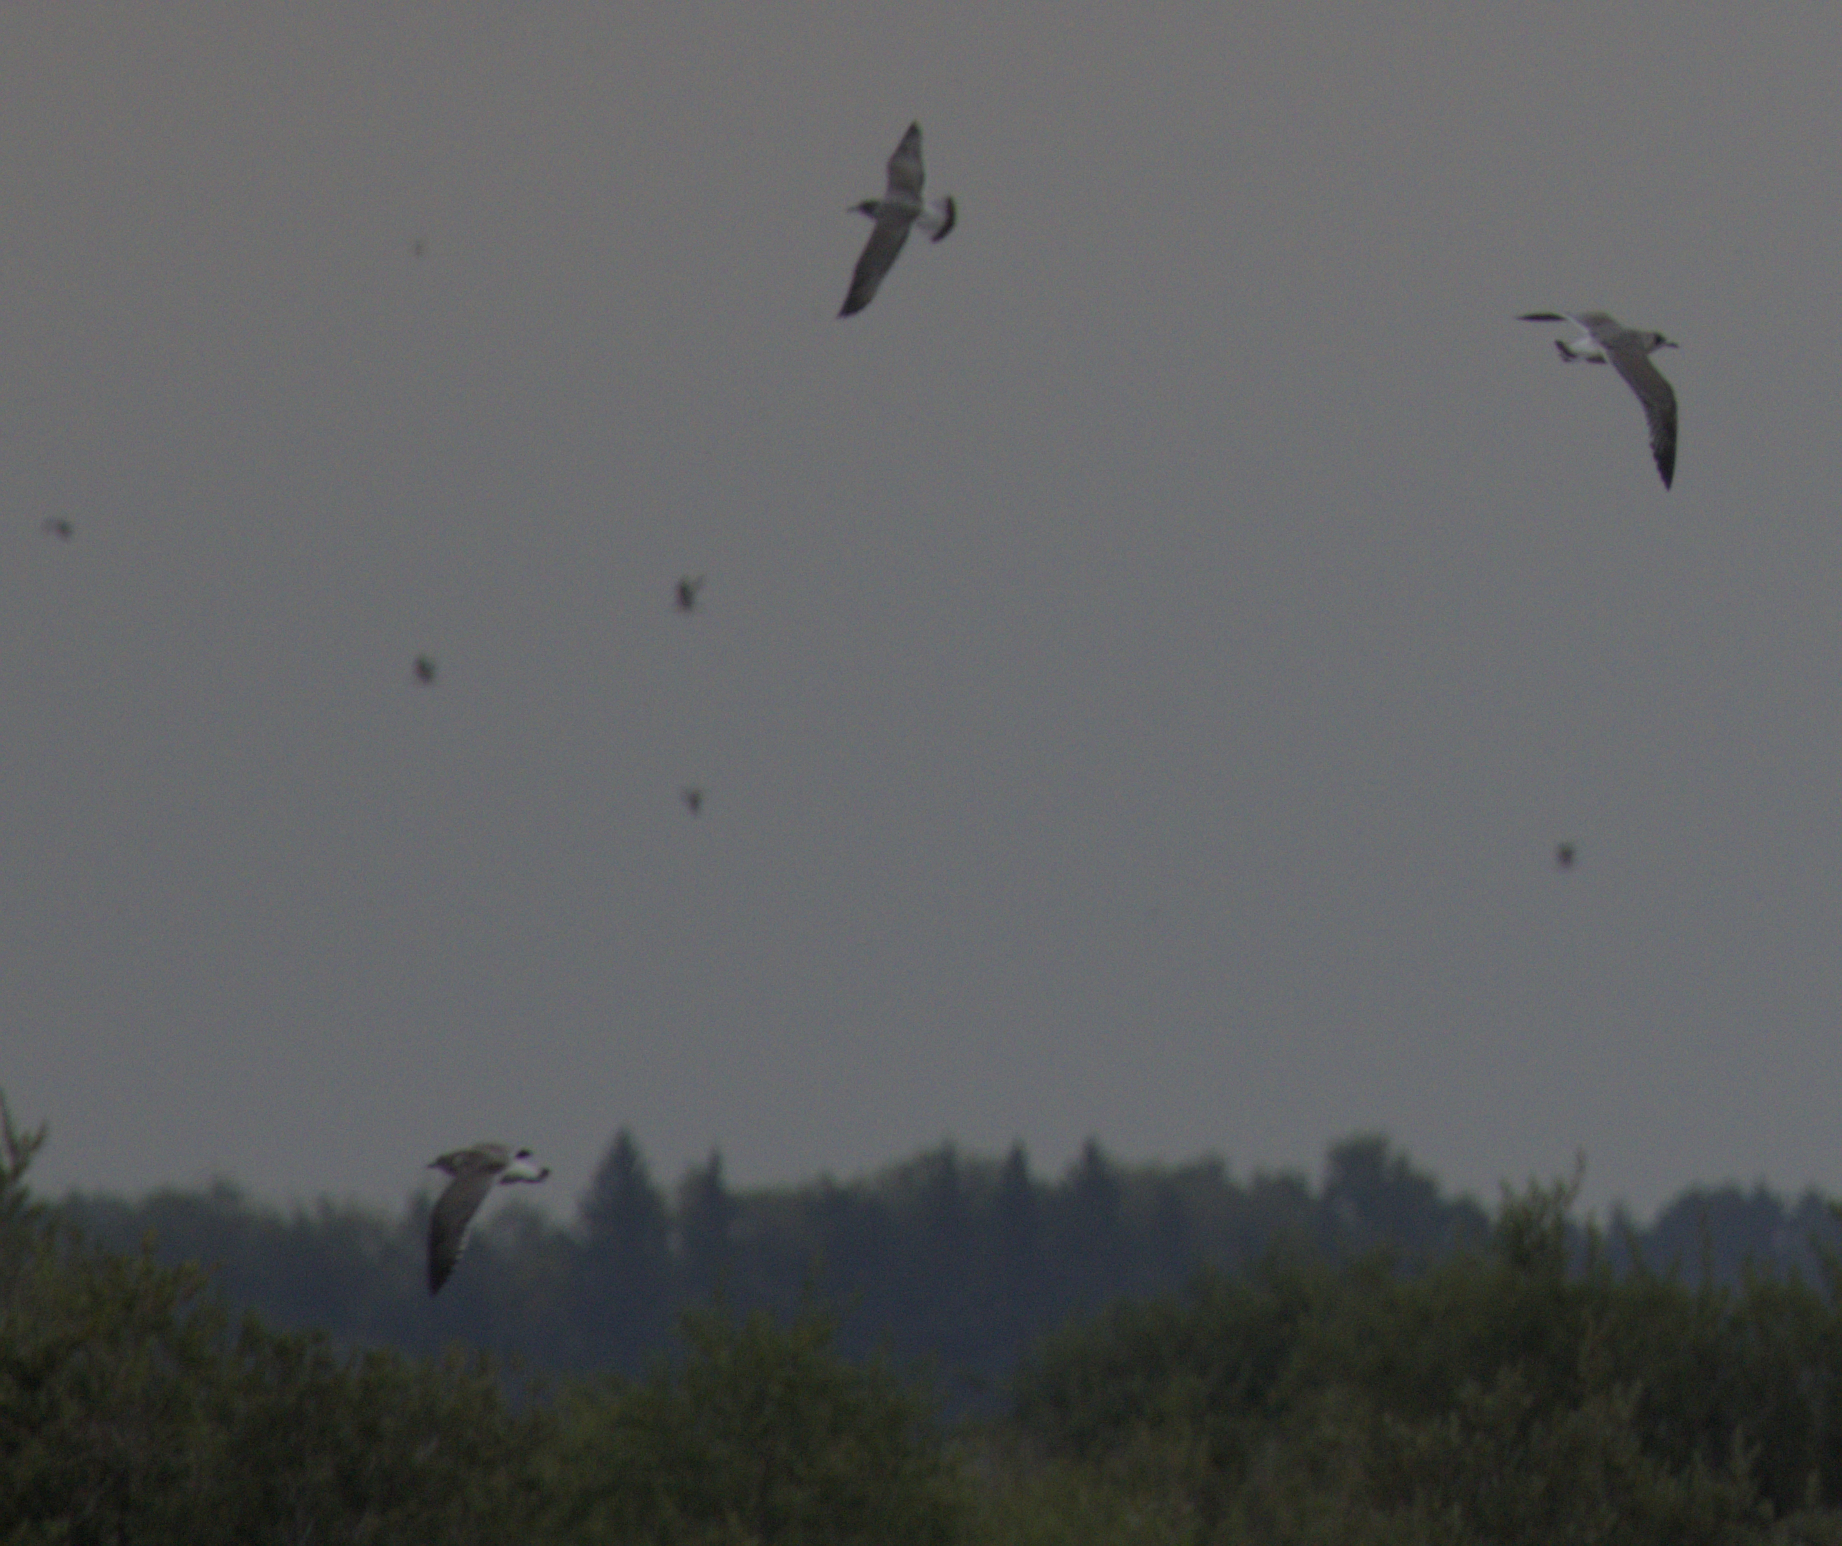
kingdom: Animalia
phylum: Chordata
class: Aves
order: Charadriiformes
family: Laridae
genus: Leucophaeus
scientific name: Leucophaeus pipixcan
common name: Franklin's gull
